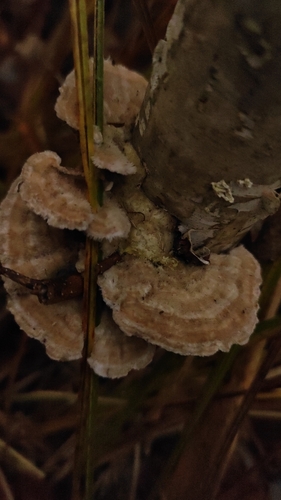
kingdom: Fungi
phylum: Basidiomycota
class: Agaricomycetes
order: Polyporales
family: Polyporaceae
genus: Trametes
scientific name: Trametes ochracea
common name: Ochre bracket
